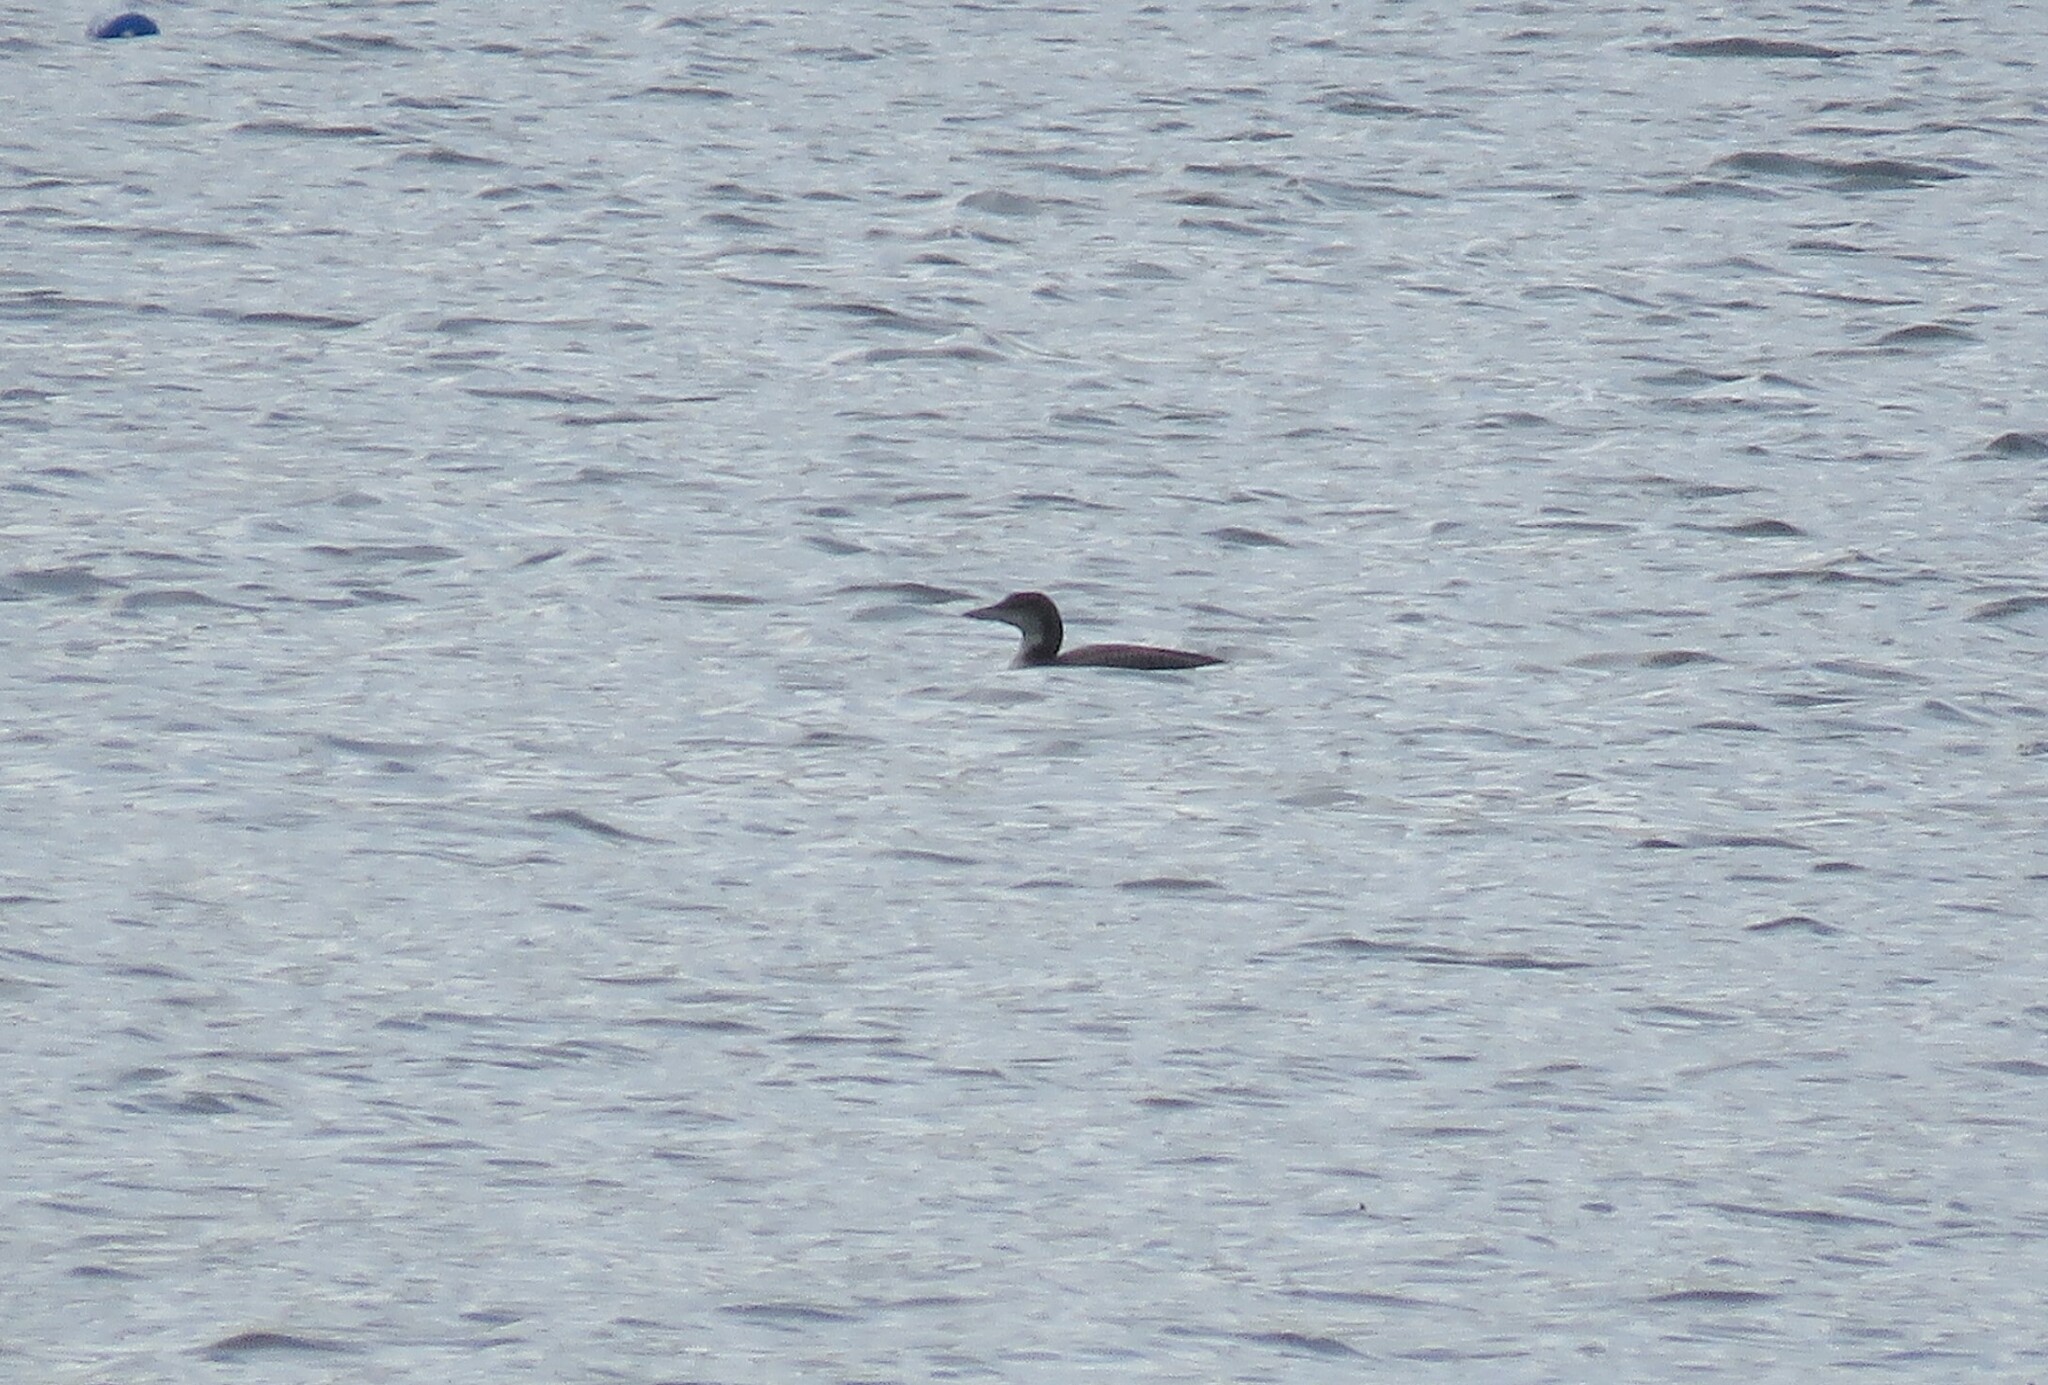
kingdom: Animalia
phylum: Chordata
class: Aves
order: Gaviiformes
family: Gaviidae
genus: Gavia
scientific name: Gavia immer
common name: Common loon
